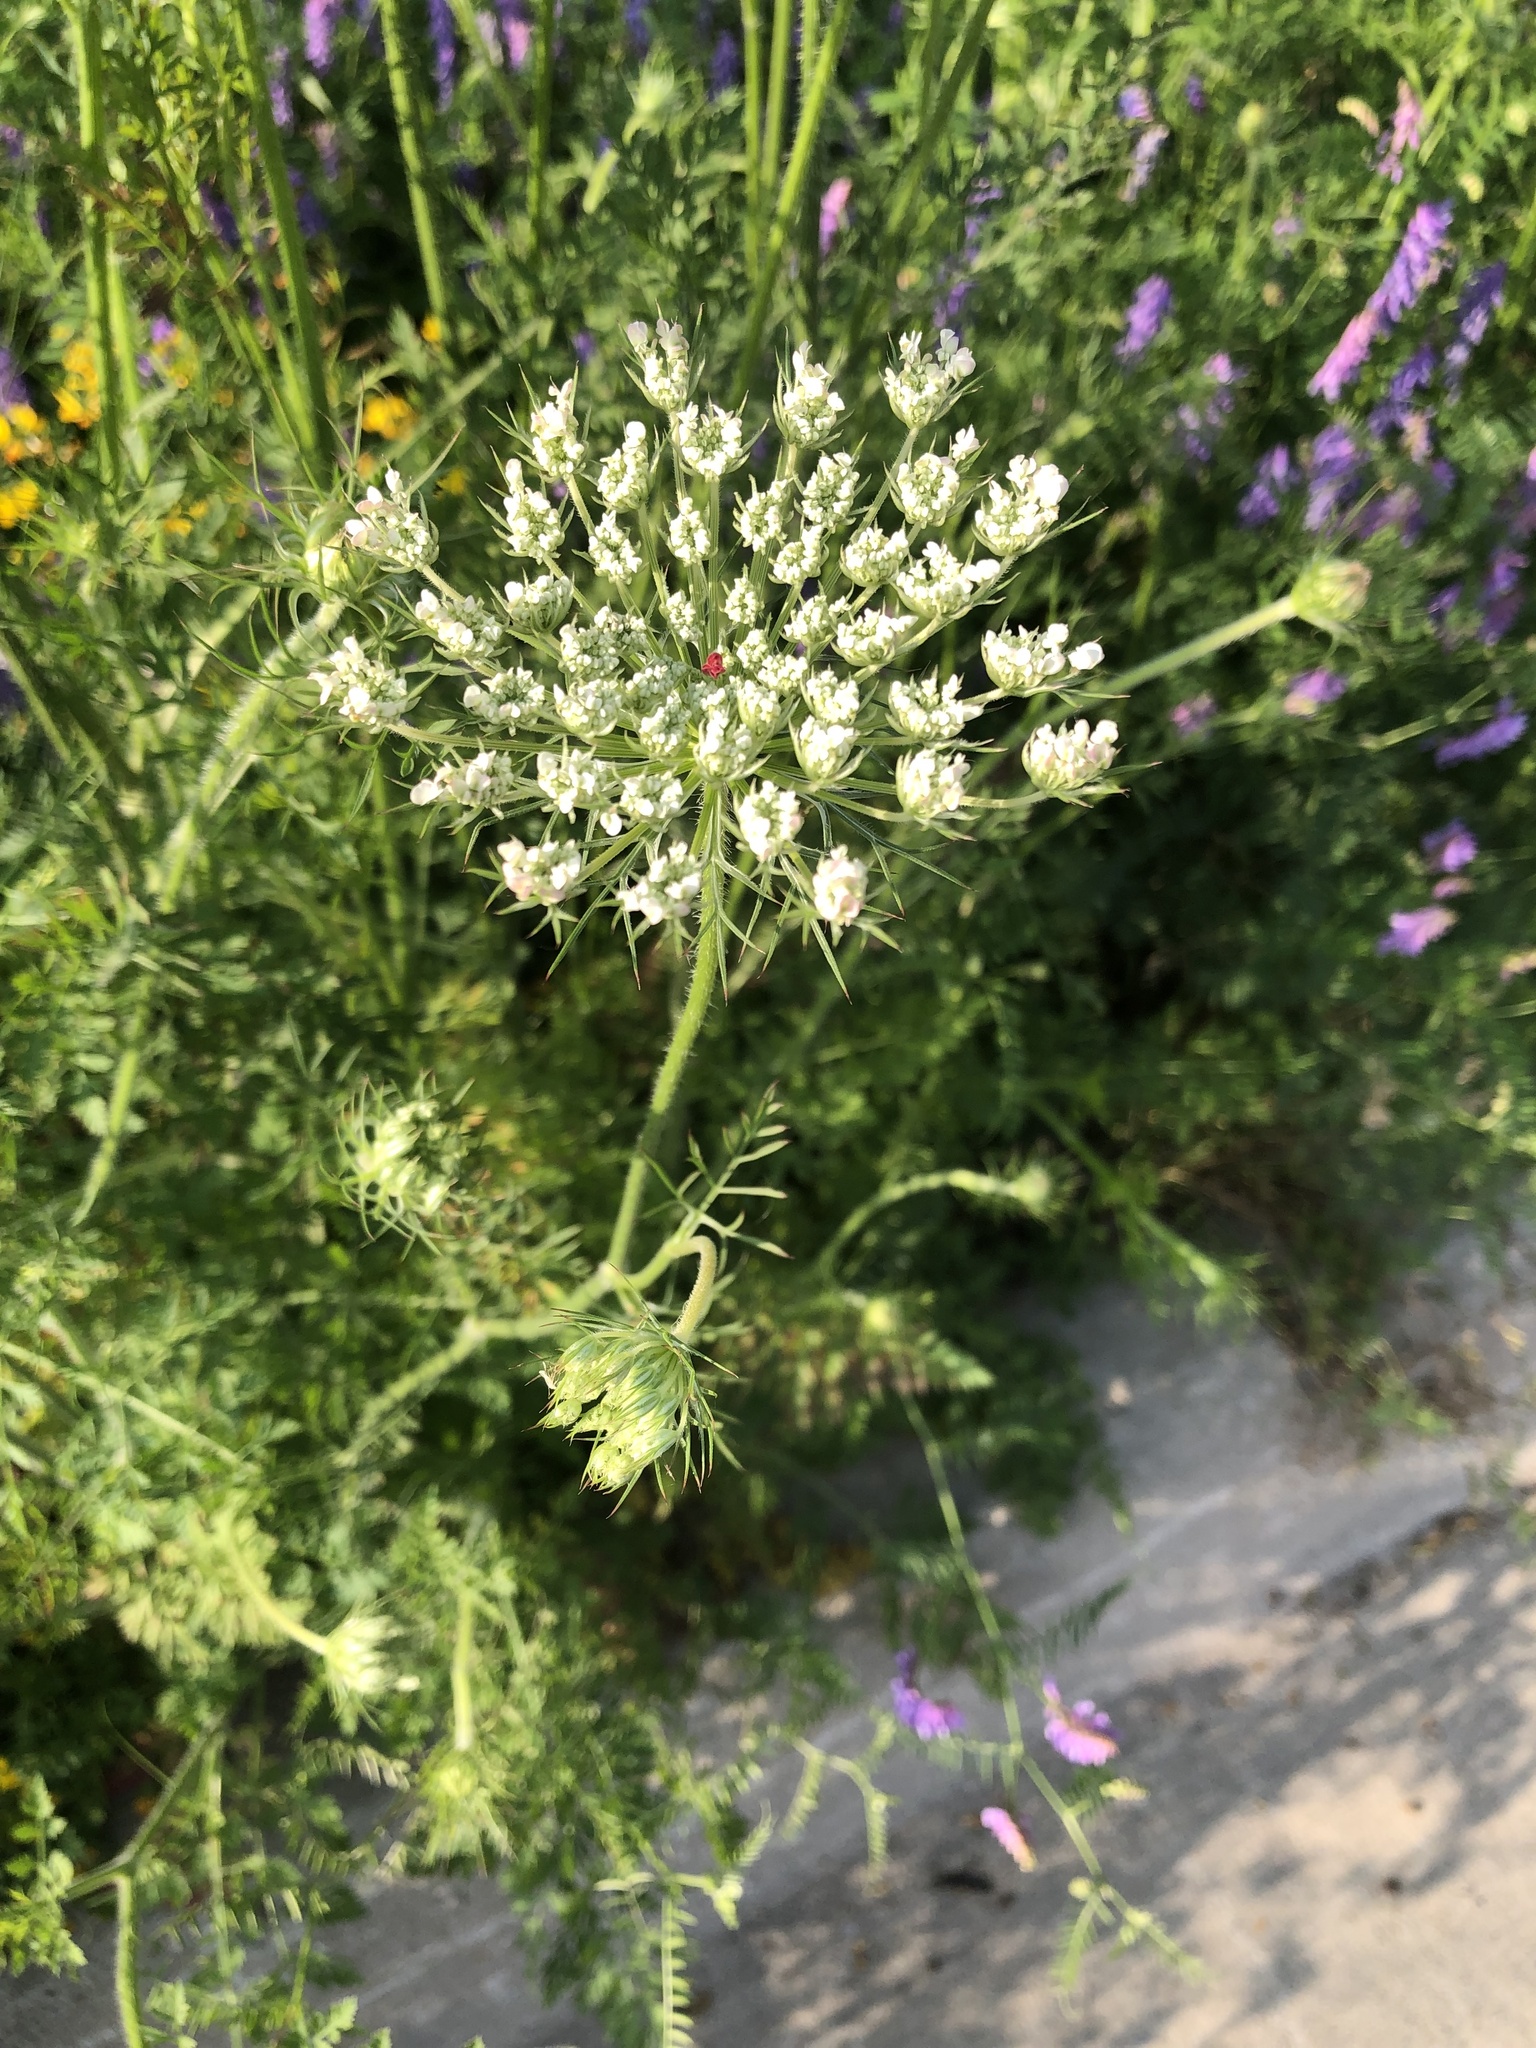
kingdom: Plantae
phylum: Tracheophyta
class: Magnoliopsida
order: Apiales
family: Apiaceae
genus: Daucus
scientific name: Daucus carota
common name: Wild carrot
